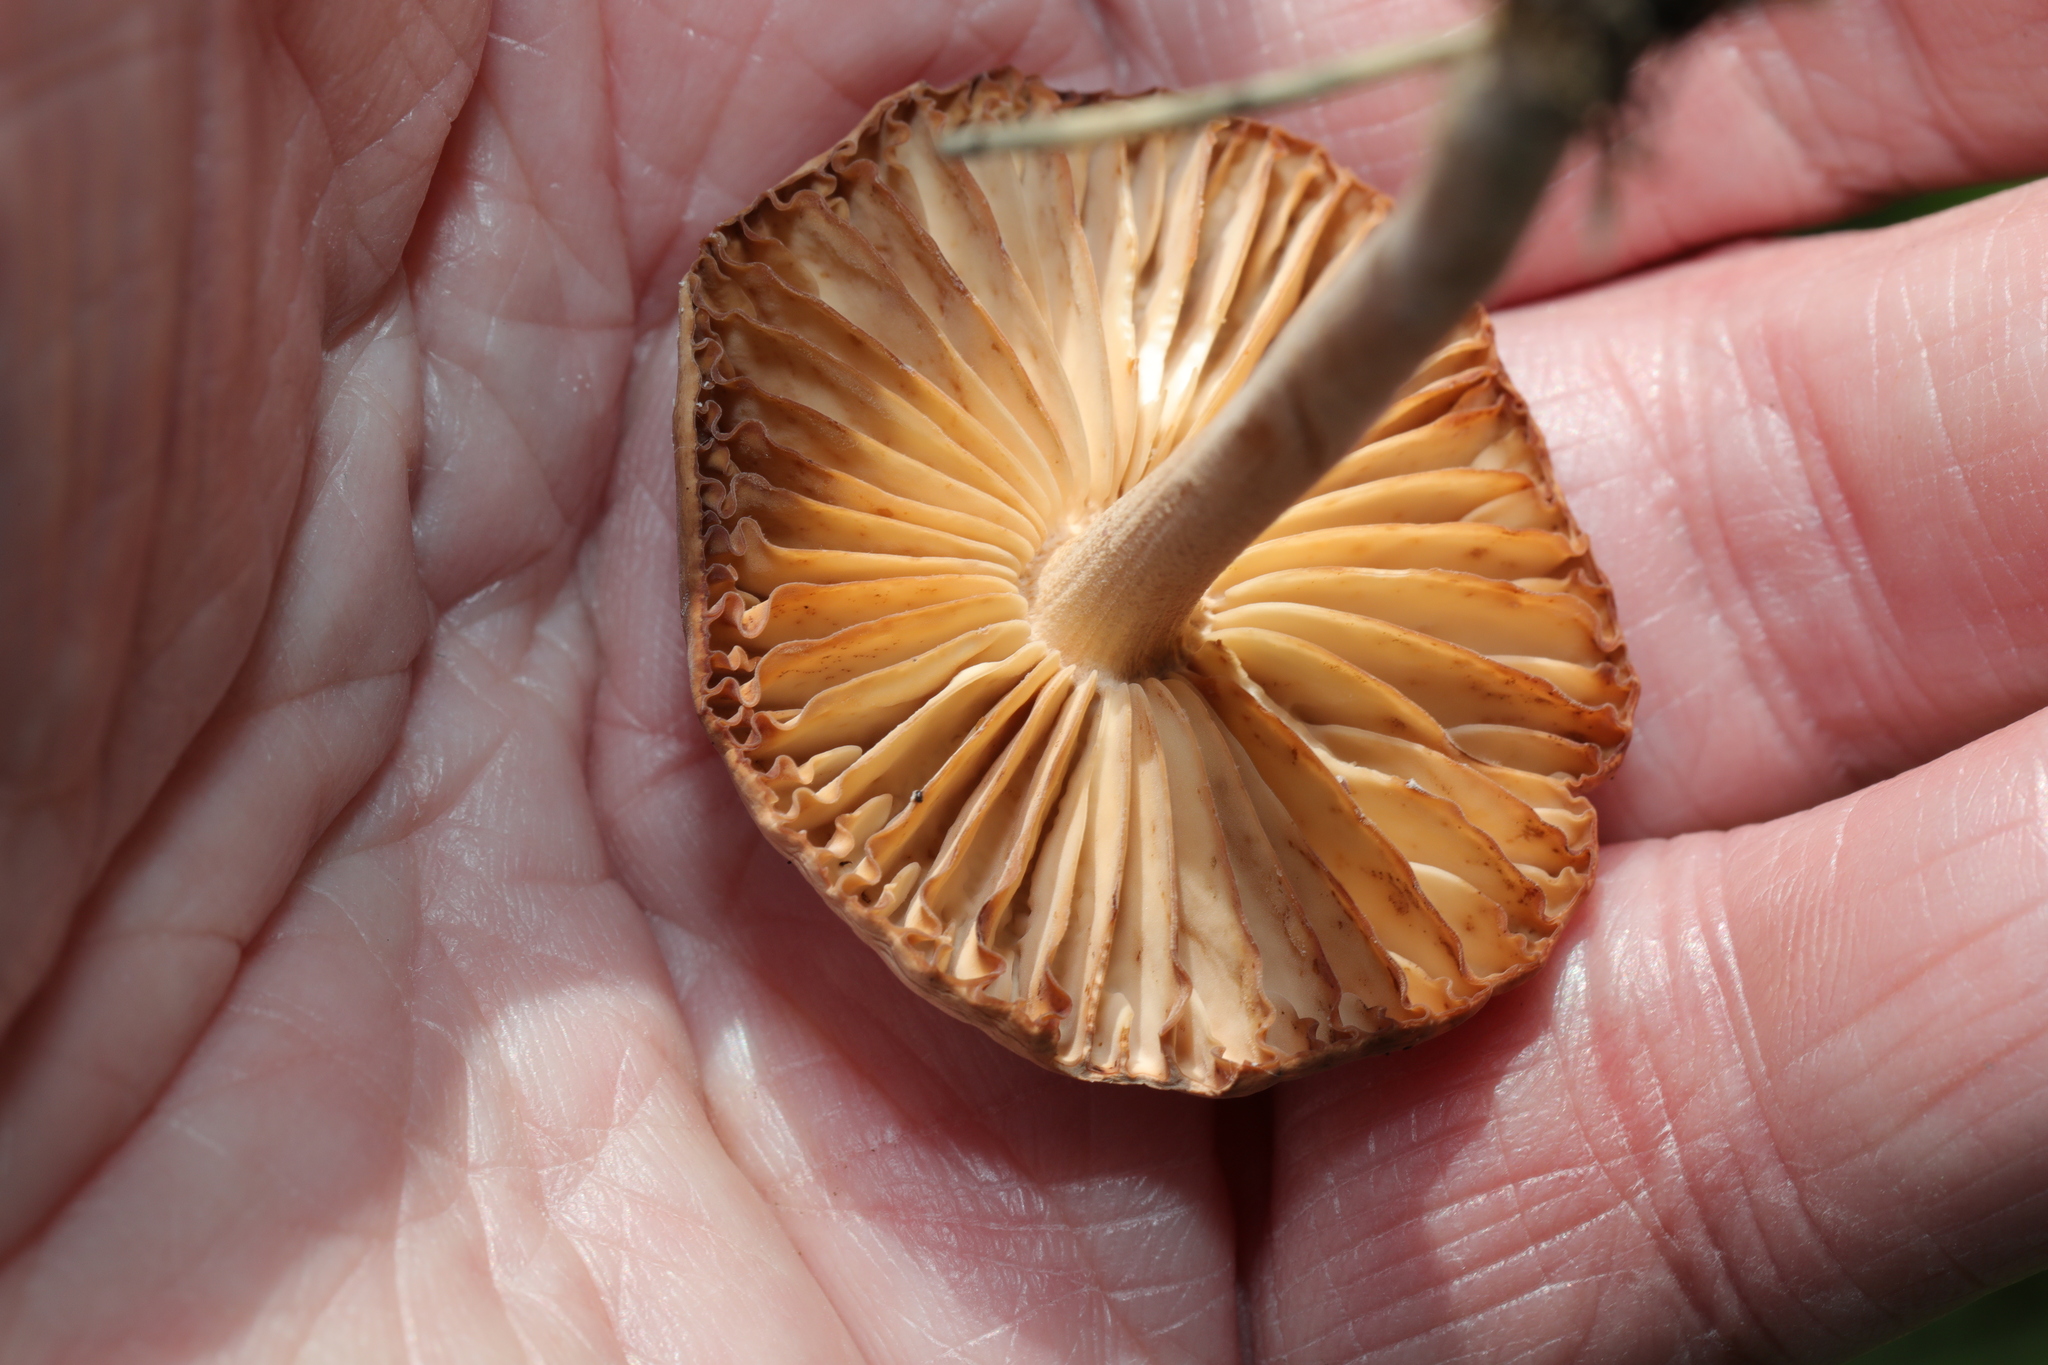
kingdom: Fungi
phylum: Basidiomycota
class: Agaricomycetes
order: Agaricales
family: Marasmiaceae
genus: Marasmius
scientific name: Marasmius oreades
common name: Fairy ring champignon
